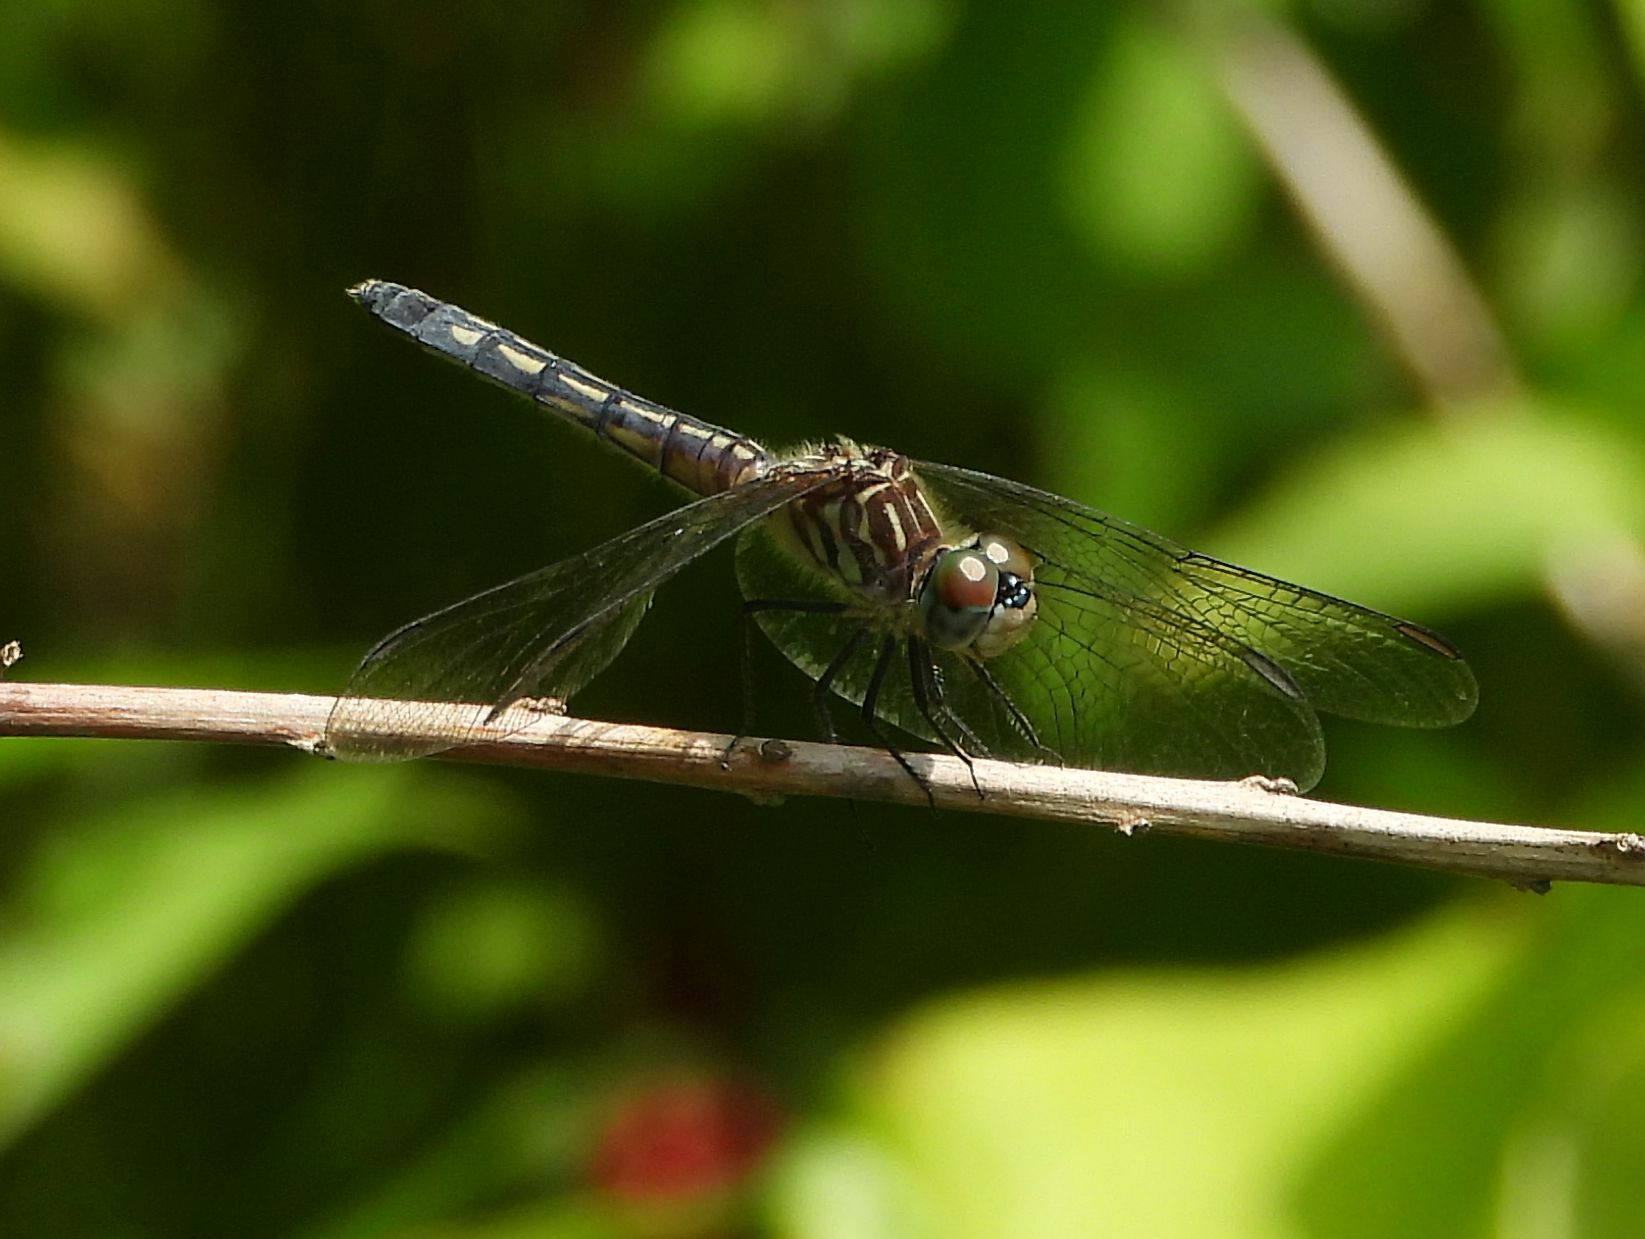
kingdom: Animalia
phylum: Arthropoda
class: Insecta
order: Odonata
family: Libellulidae
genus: Pachydiplax
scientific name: Pachydiplax longipennis
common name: Blue dasher
